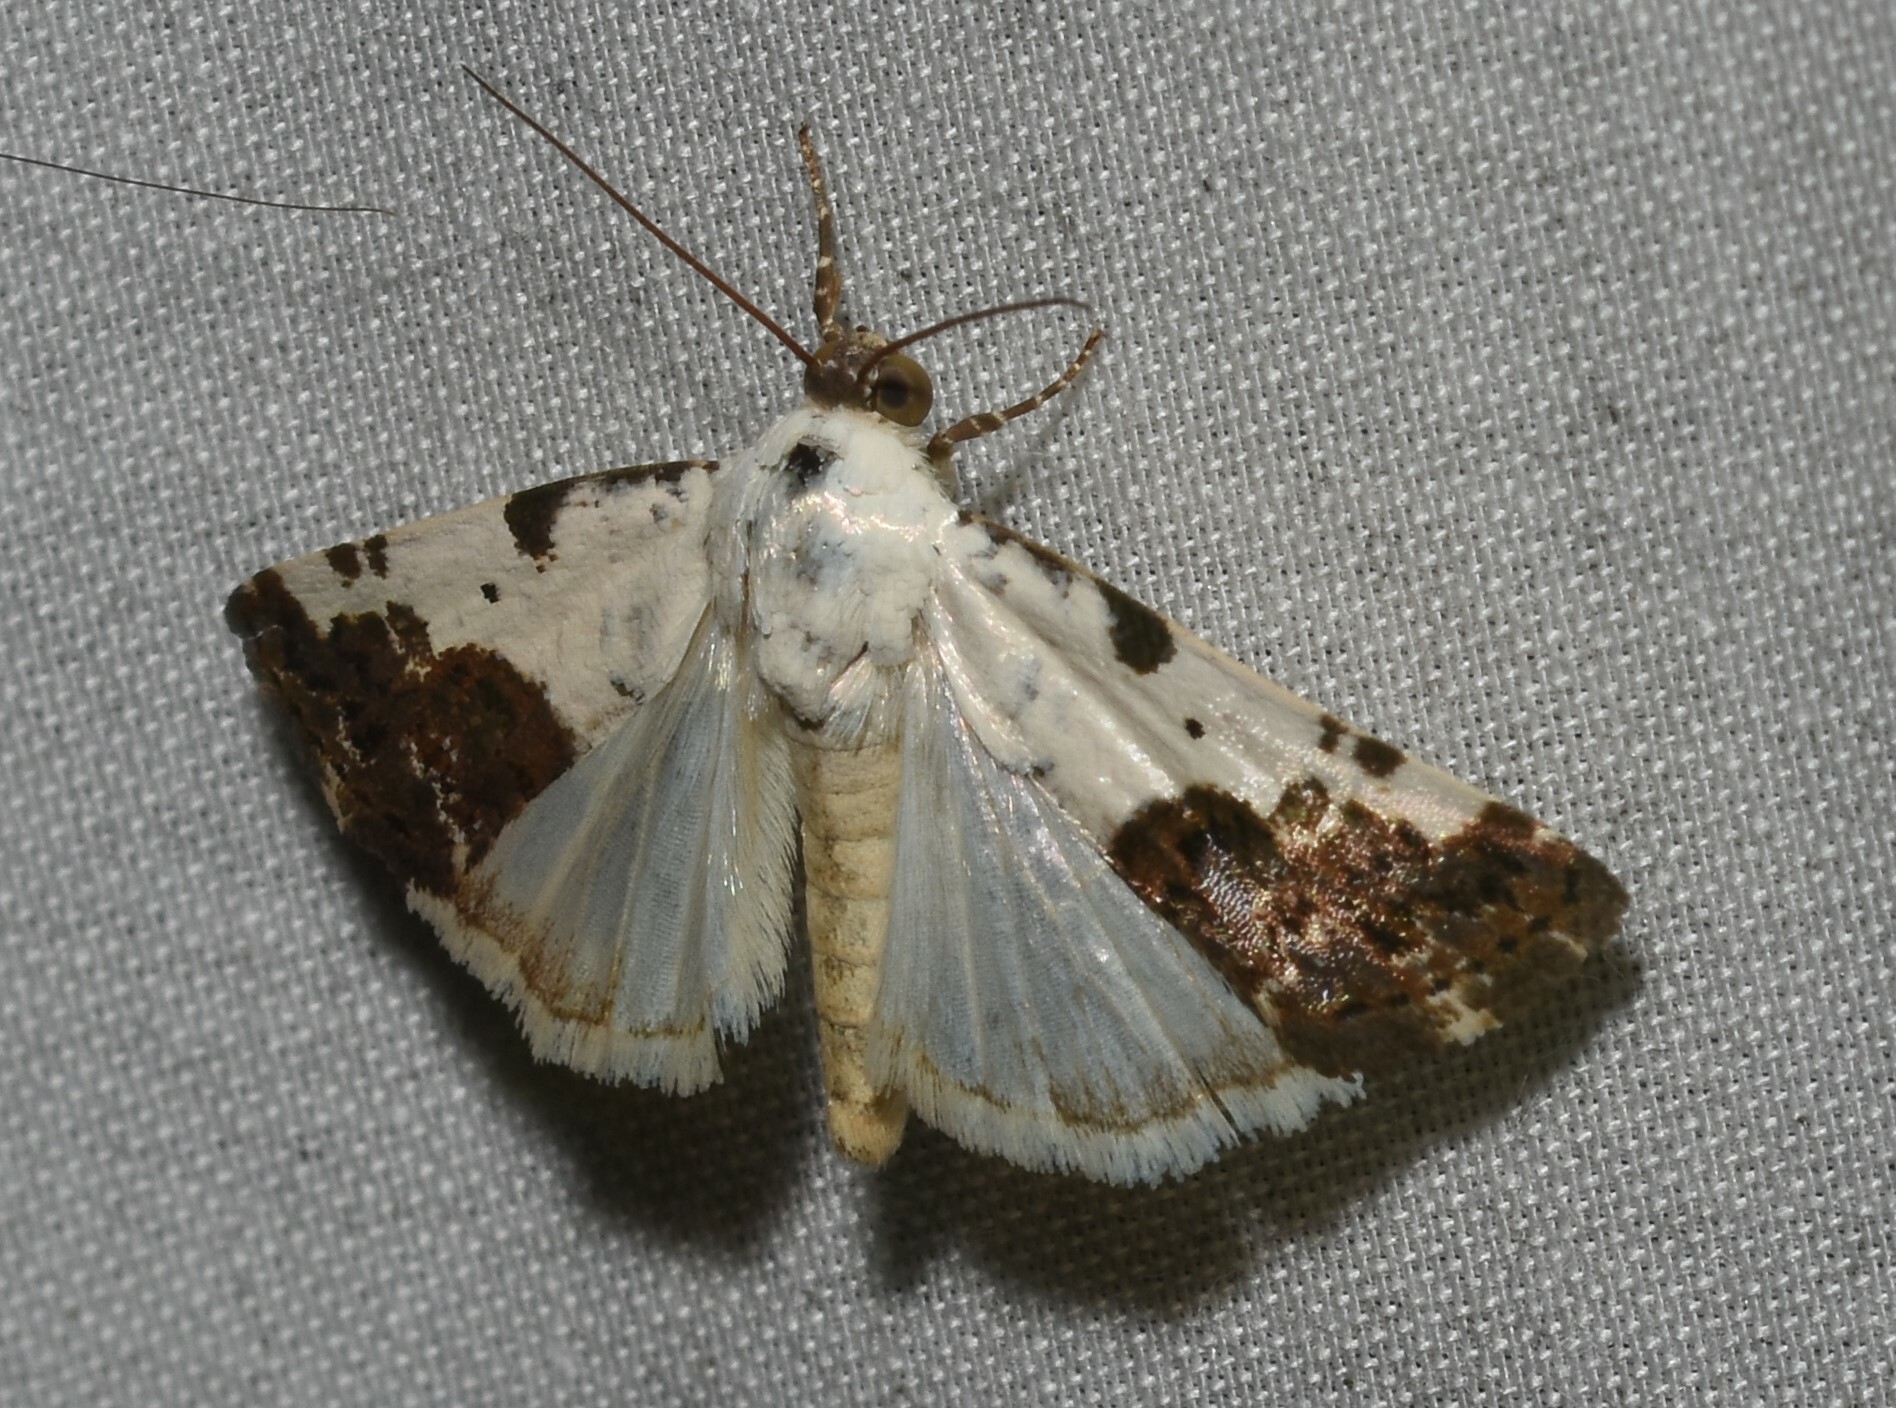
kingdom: Animalia
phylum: Arthropoda
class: Insecta
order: Lepidoptera
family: Noctuidae
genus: Acontia
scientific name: Acontia aprica
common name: Nun
